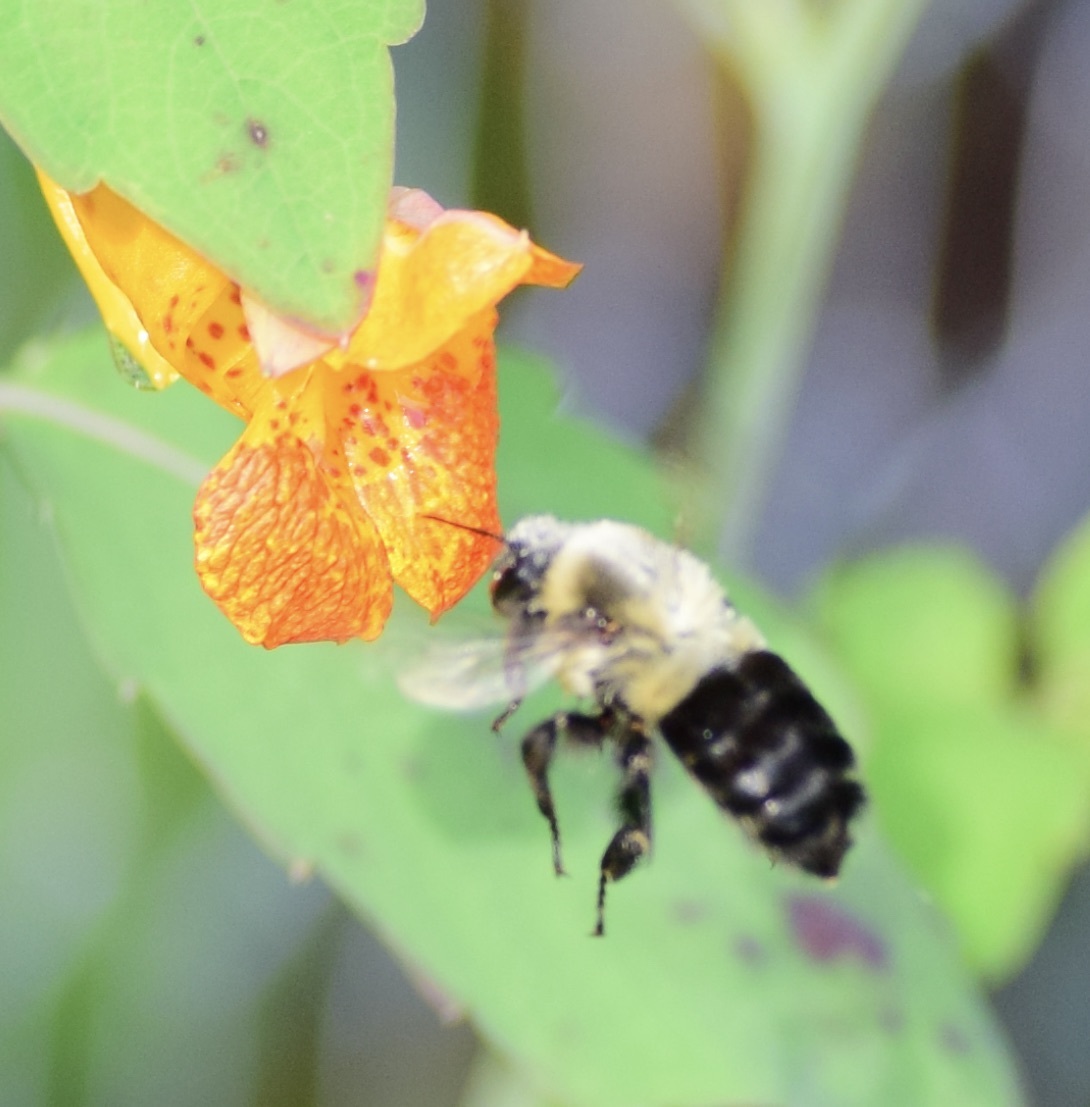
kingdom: Animalia
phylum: Arthropoda
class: Insecta
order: Hymenoptera
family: Apidae
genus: Bombus
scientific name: Bombus impatiens
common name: Common eastern bumble bee
